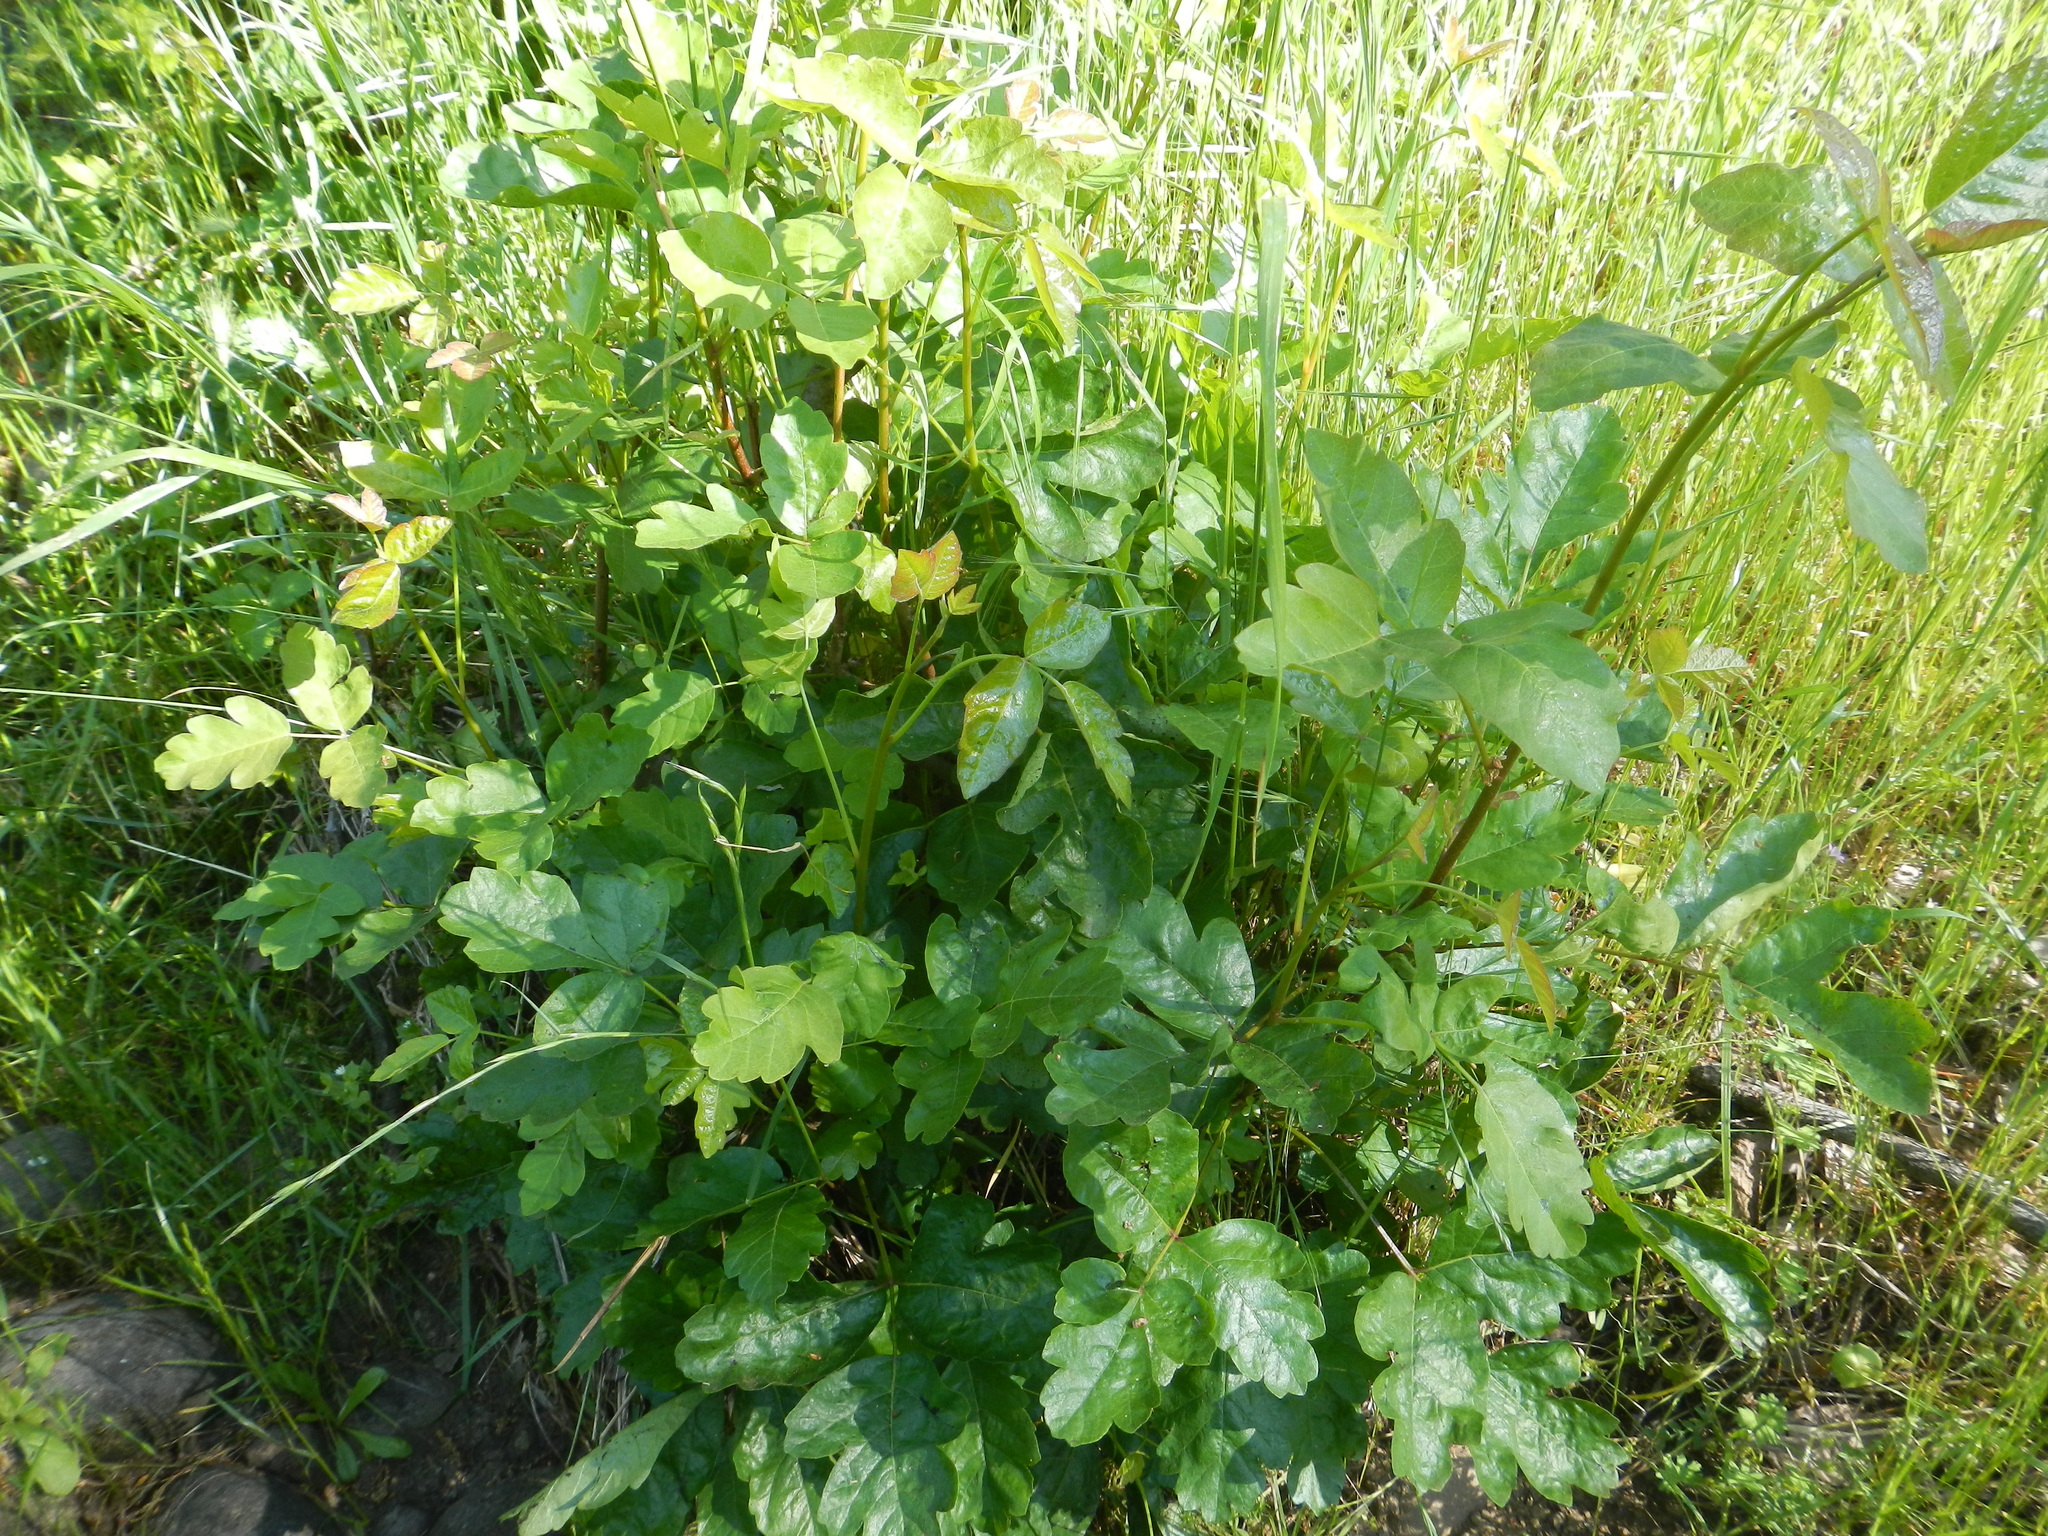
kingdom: Plantae
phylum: Tracheophyta
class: Magnoliopsida
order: Sapindales
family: Anacardiaceae
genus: Toxicodendron
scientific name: Toxicodendron diversilobum
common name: Pacific poison-oak
